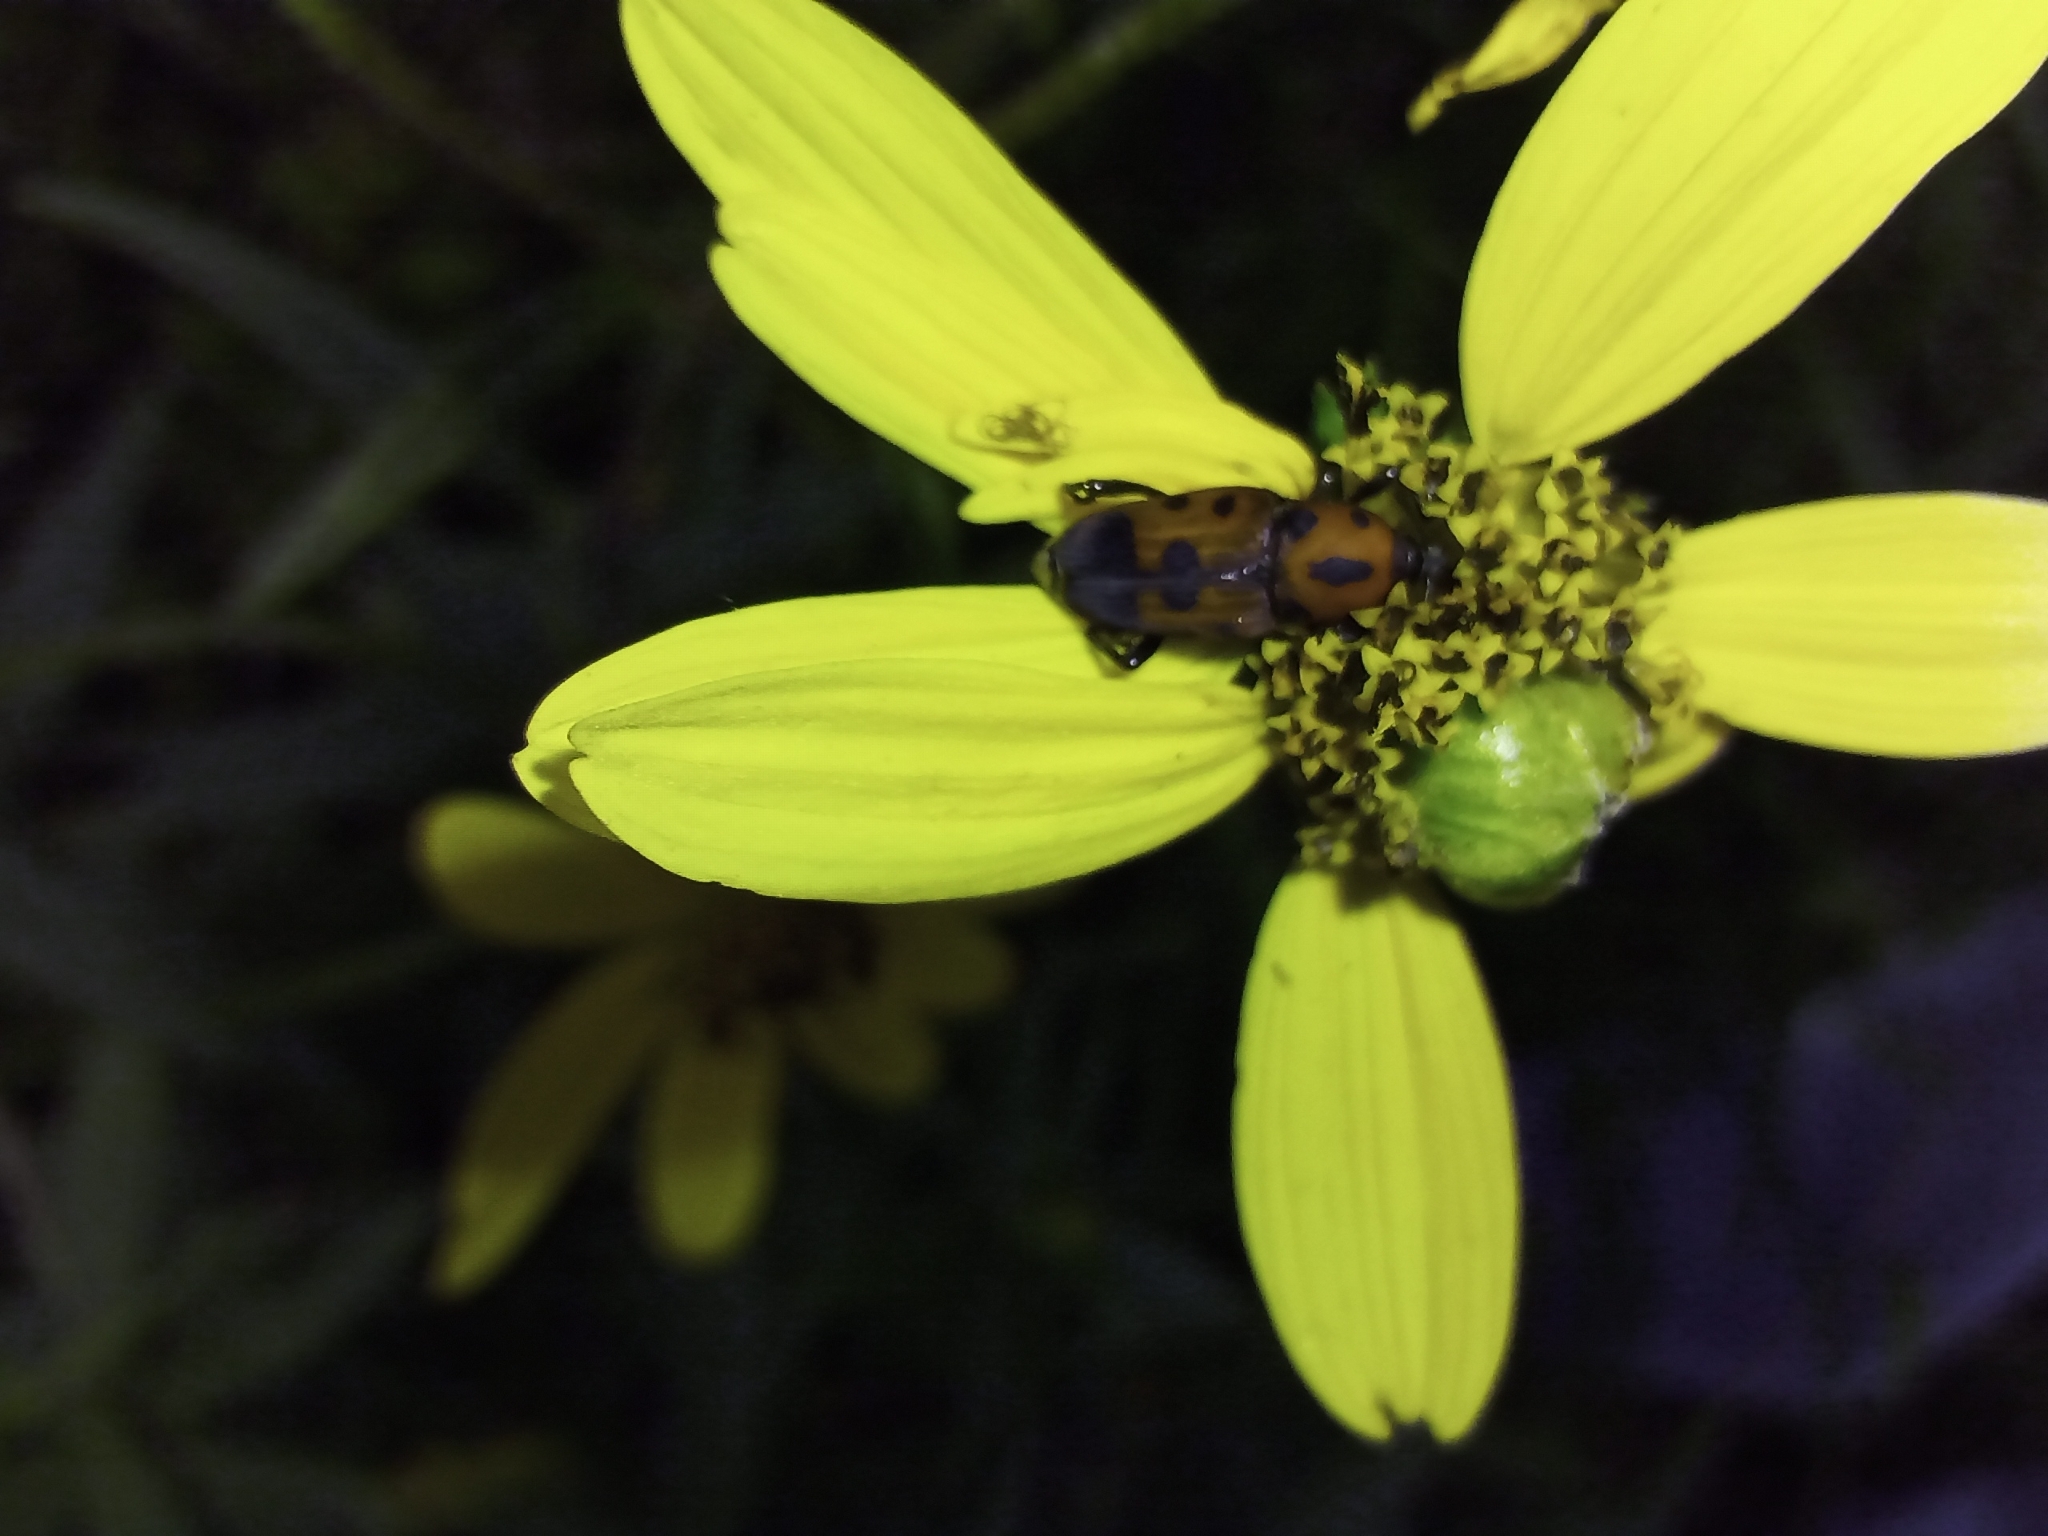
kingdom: Animalia
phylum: Arthropoda
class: Insecta
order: Coleoptera
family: Dryophthoridae
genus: Rhodobaenus
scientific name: Rhodobaenus quinquepunctatus
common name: Cocklebur weevil
